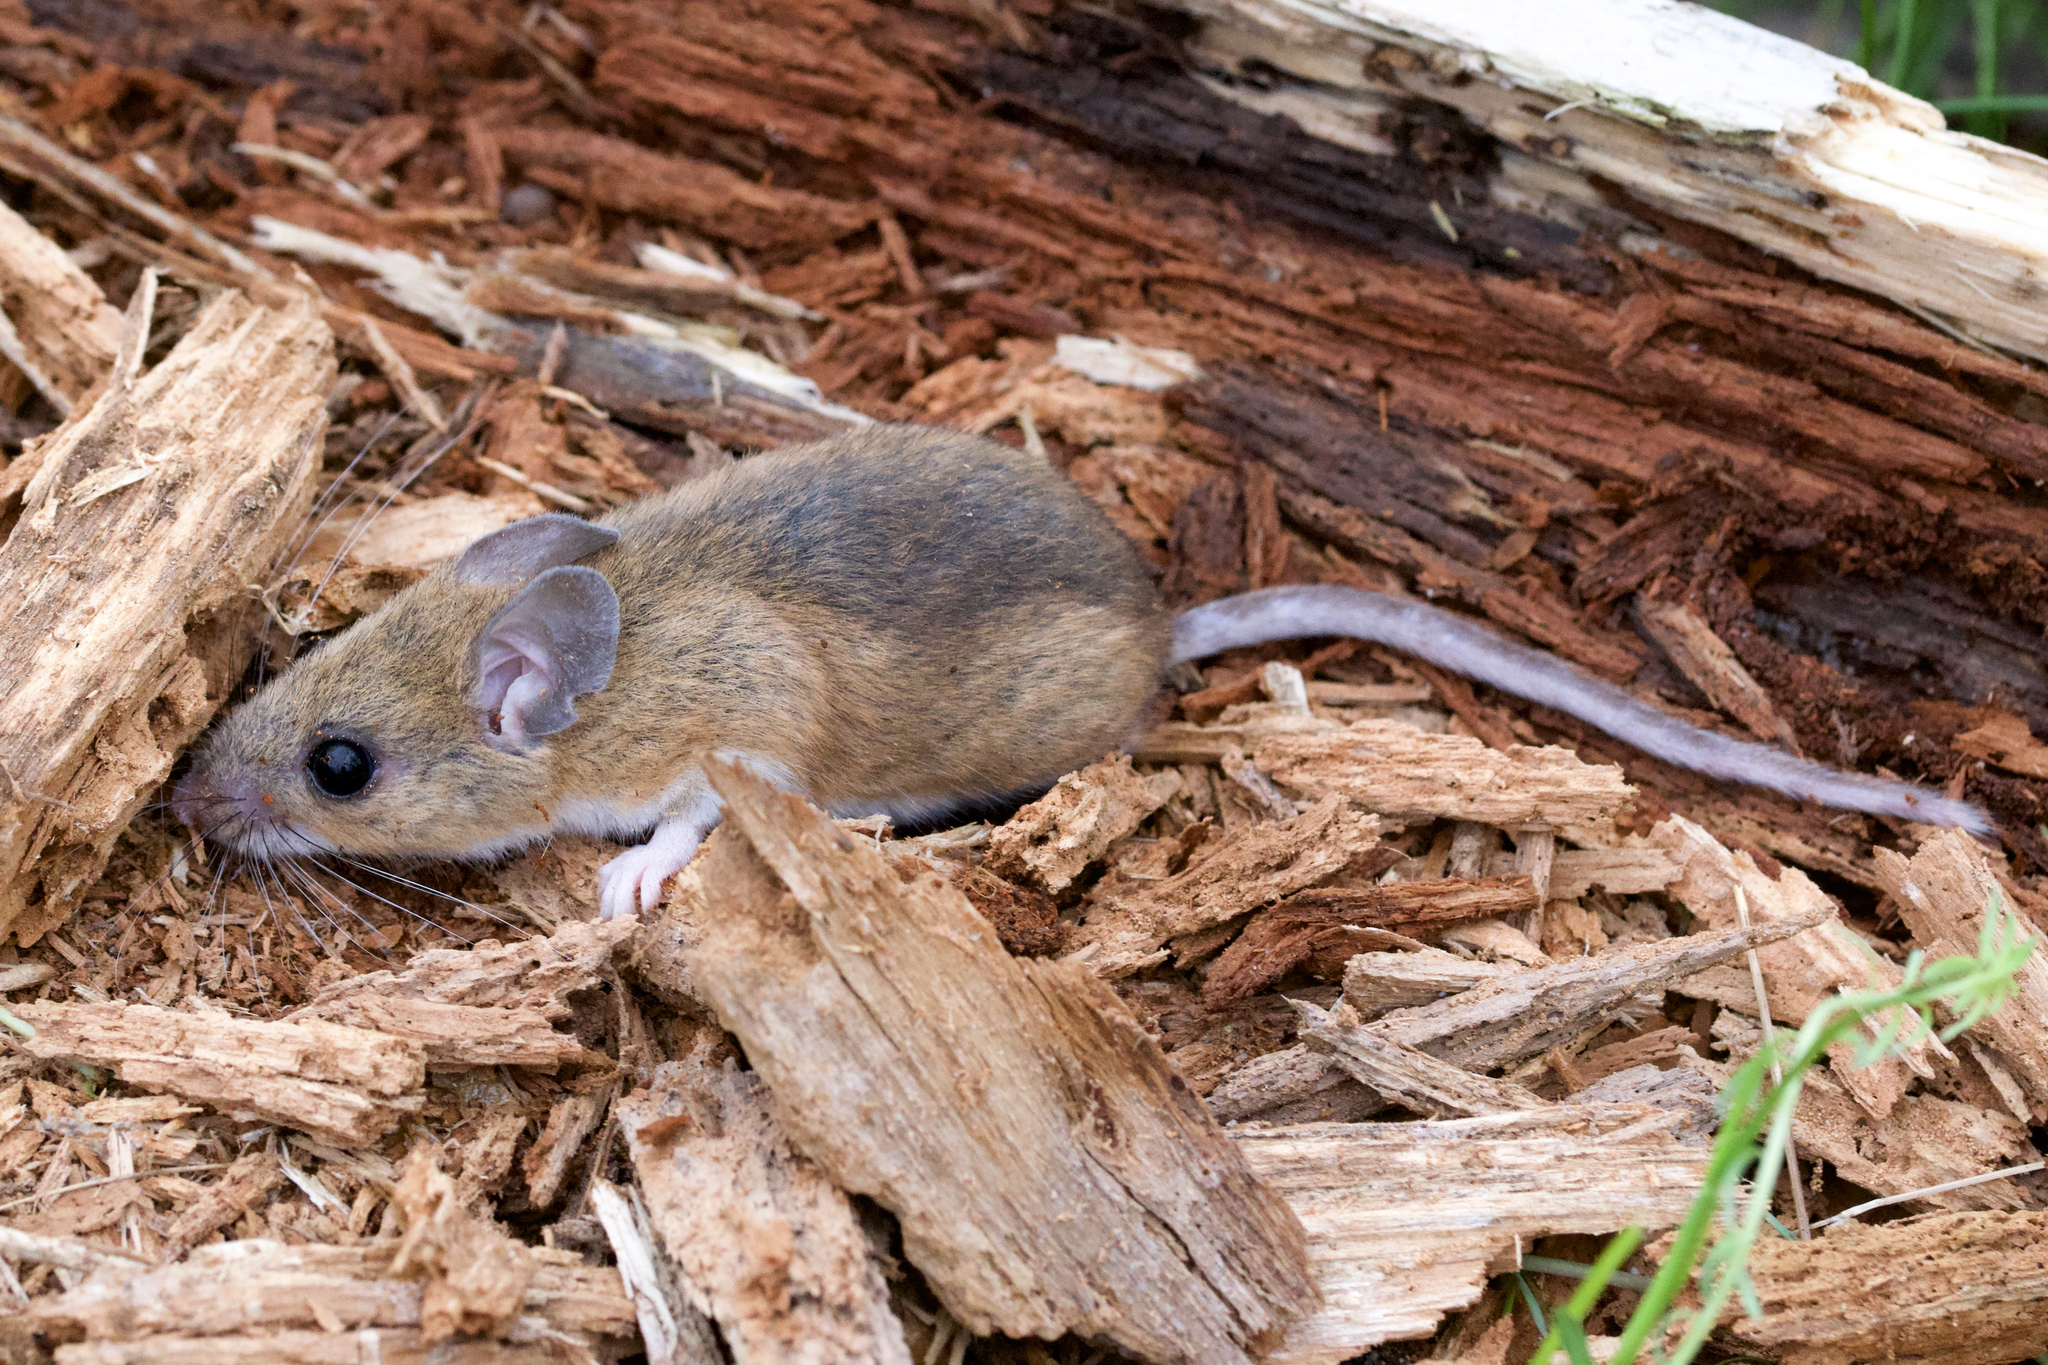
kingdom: Animalia
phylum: Chordata
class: Mammalia
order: Rodentia
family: Cricetidae
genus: Peromyscus
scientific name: Peromyscus
